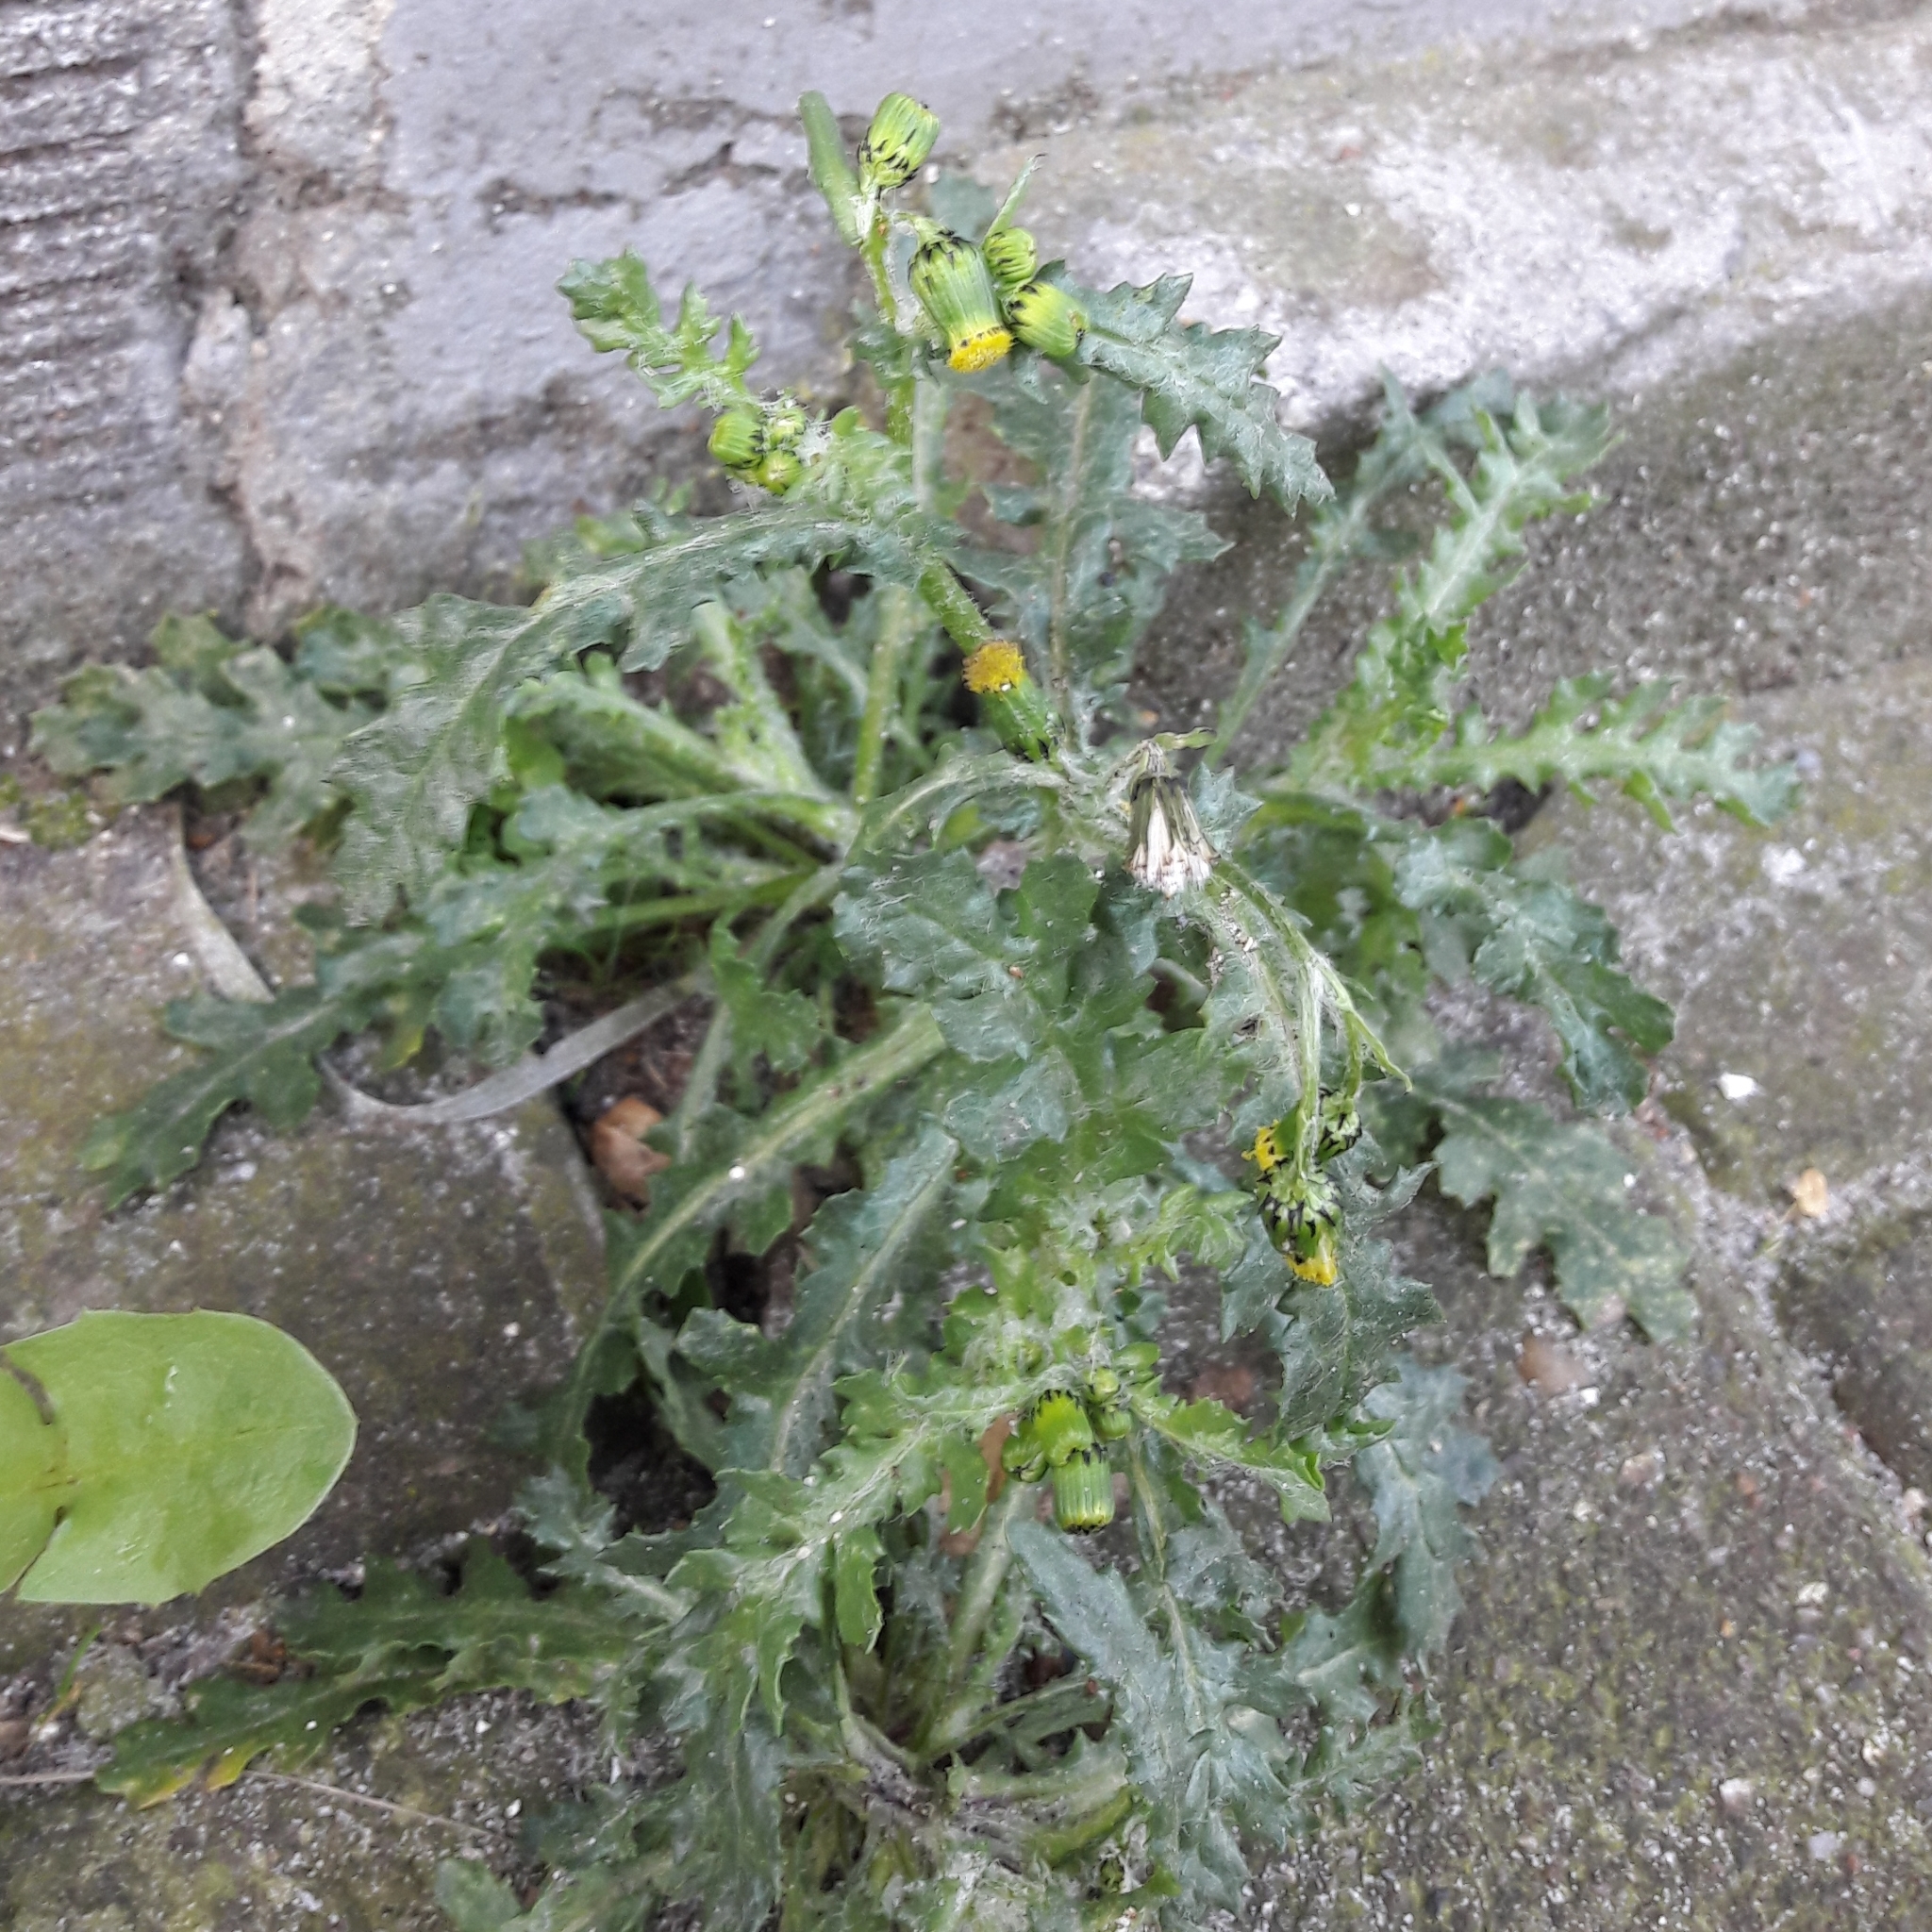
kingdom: Plantae
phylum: Tracheophyta
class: Magnoliopsida
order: Asterales
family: Asteraceae
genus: Senecio
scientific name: Senecio vulgaris
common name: Old-man-in-the-spring
